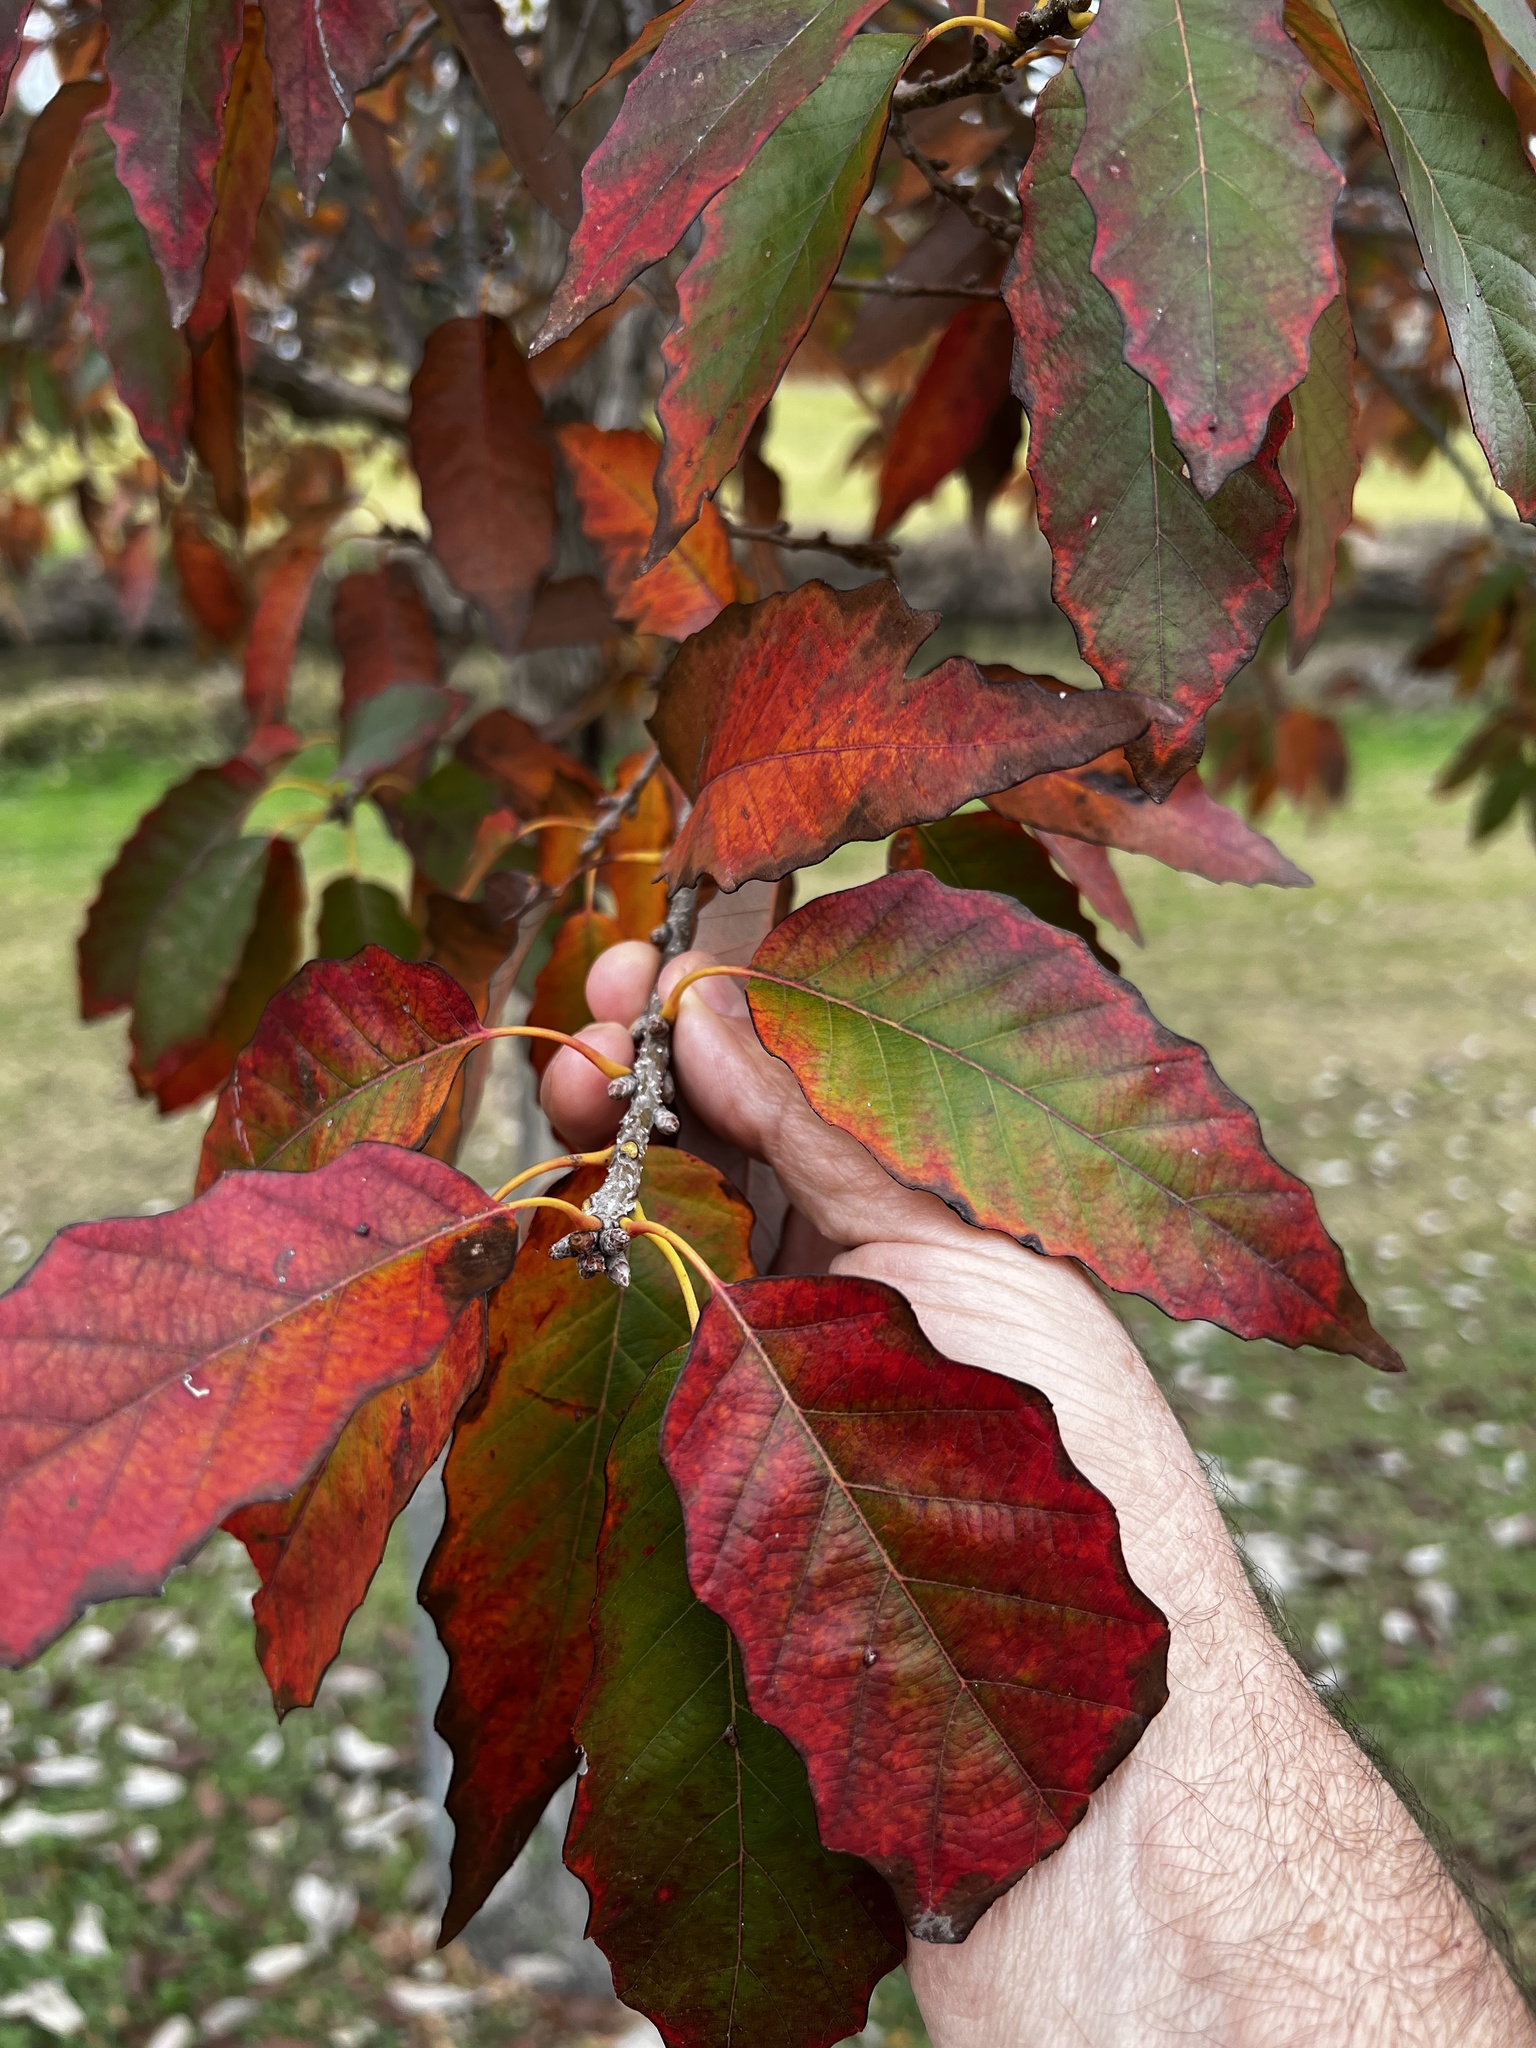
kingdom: Plantae
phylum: Tracheophyta
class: Magnoliopsida
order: Fagales
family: Fagaceae
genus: Quercus
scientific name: Quercus muehlenbergii
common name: Chinkapin oak
